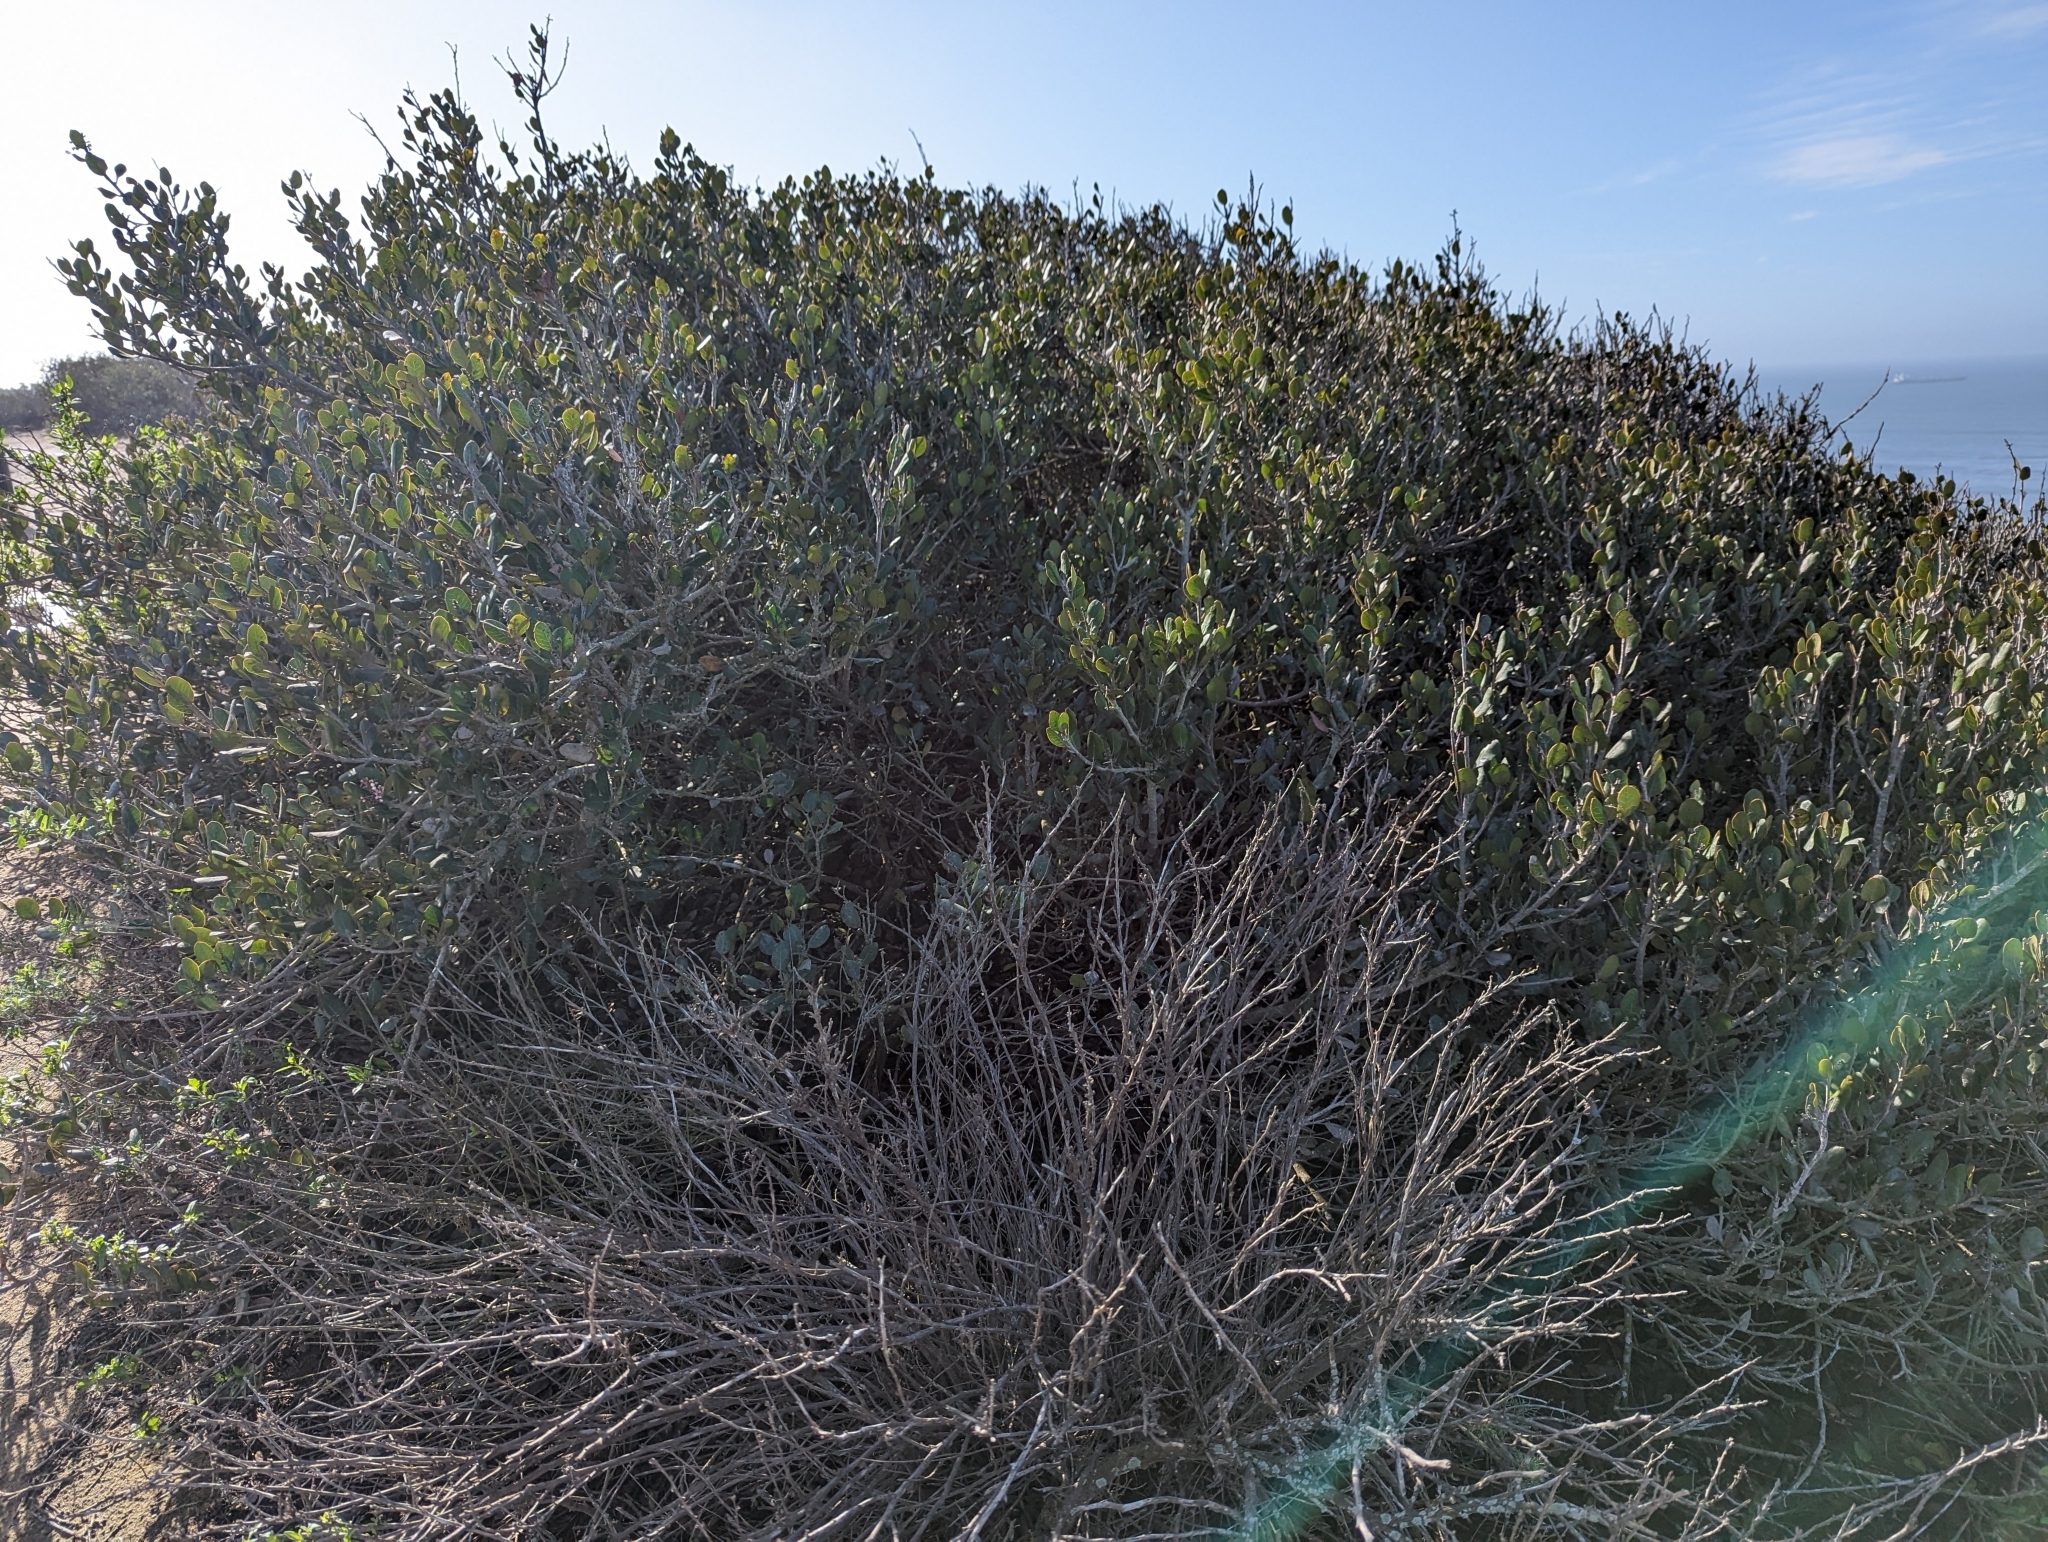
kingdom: Plantae
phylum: Tracheophyta
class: Magnoliopsida
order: Sapindales
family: Anacardiaceae
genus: Rhus
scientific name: Rhus integrifolia
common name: Lemonade sumac
